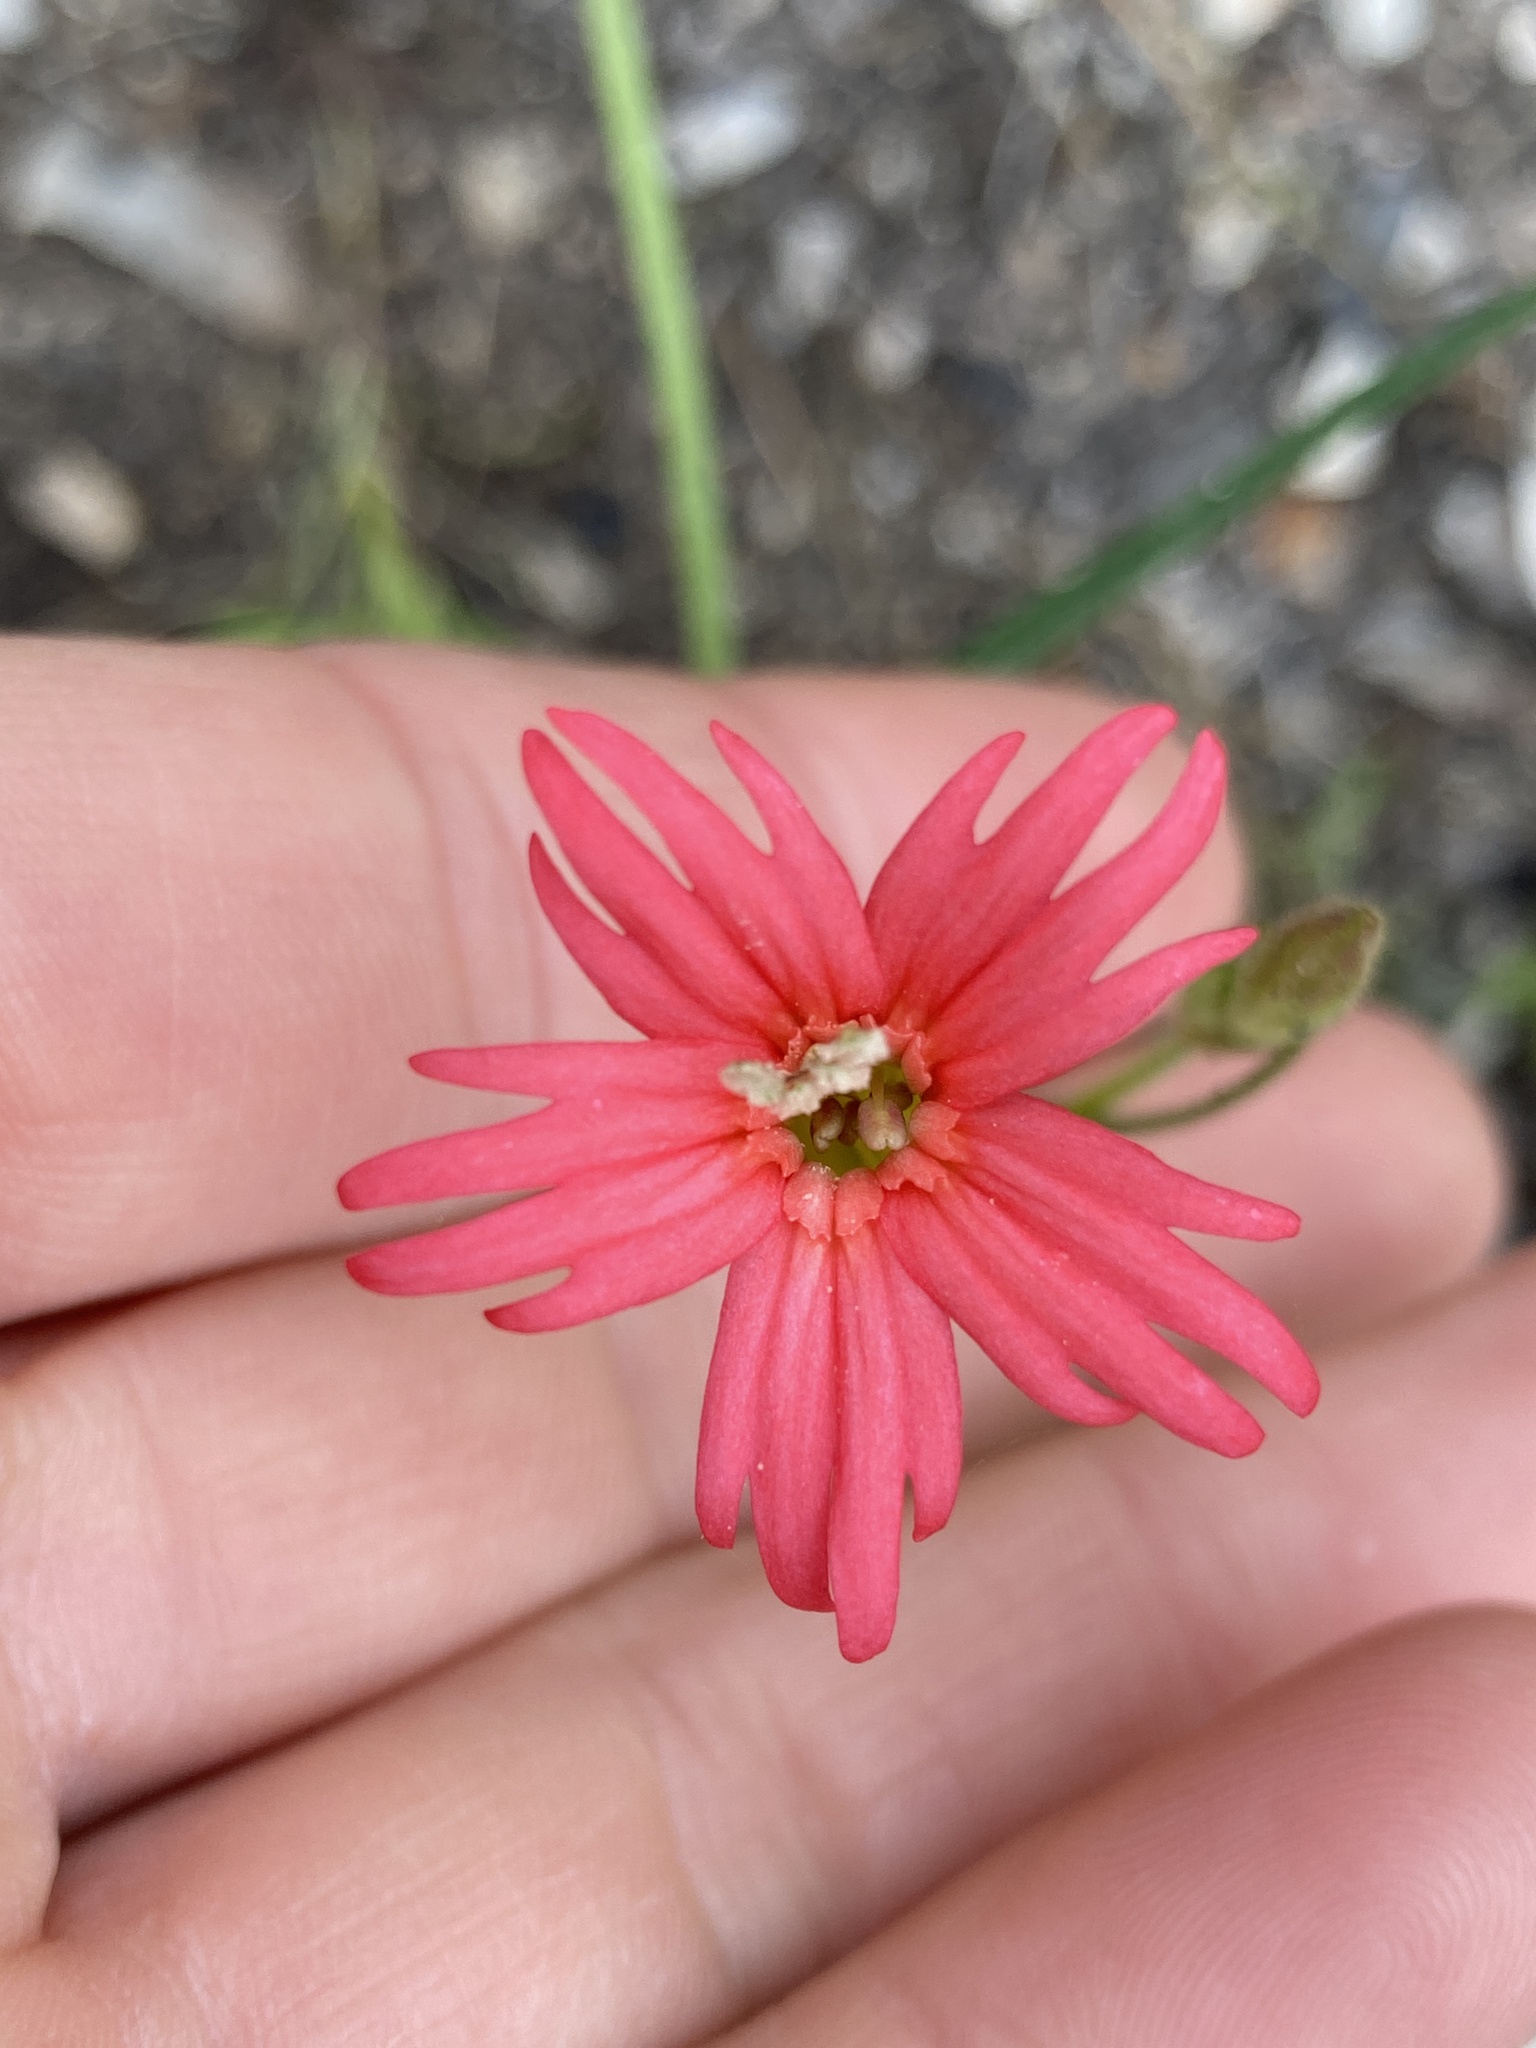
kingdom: Plantae
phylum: Tracheophyta
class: Magnoliopsida
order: Caryophyllales
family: Caryophyllaceae
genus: Silene
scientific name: Silene laciniata
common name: Indian-pink
